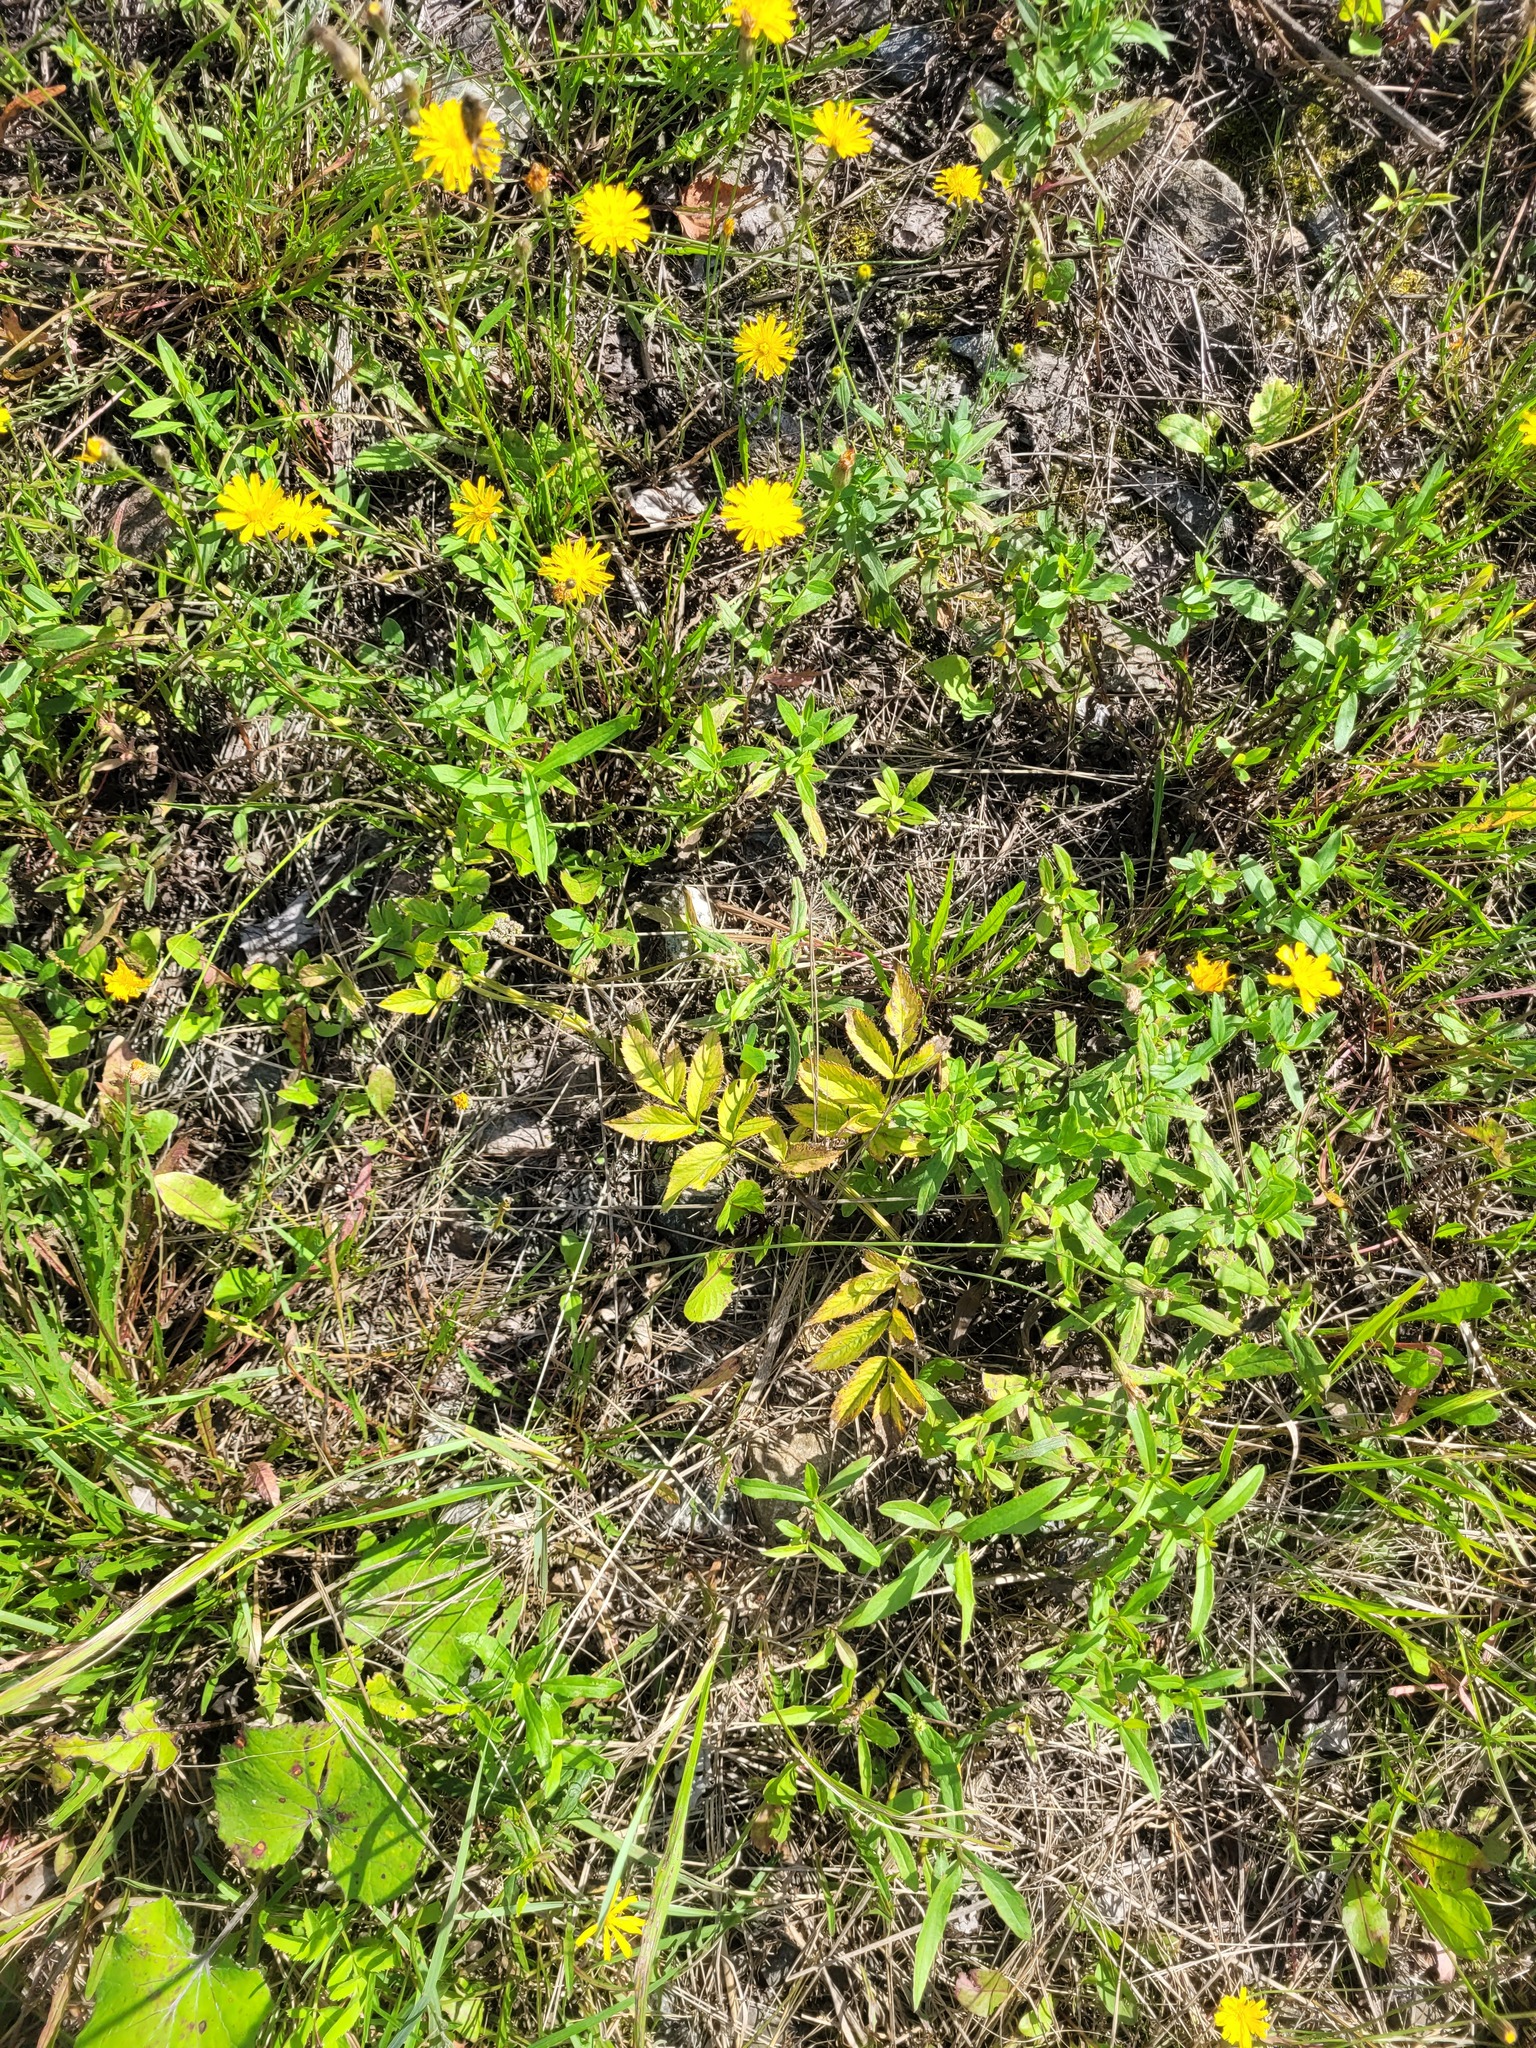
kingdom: Plantae
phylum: Tracheophyta
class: Magnoliopsida
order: Apiales
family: Apiaceae
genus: Angelica
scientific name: Angelica sylvestris
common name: Wild angelica
